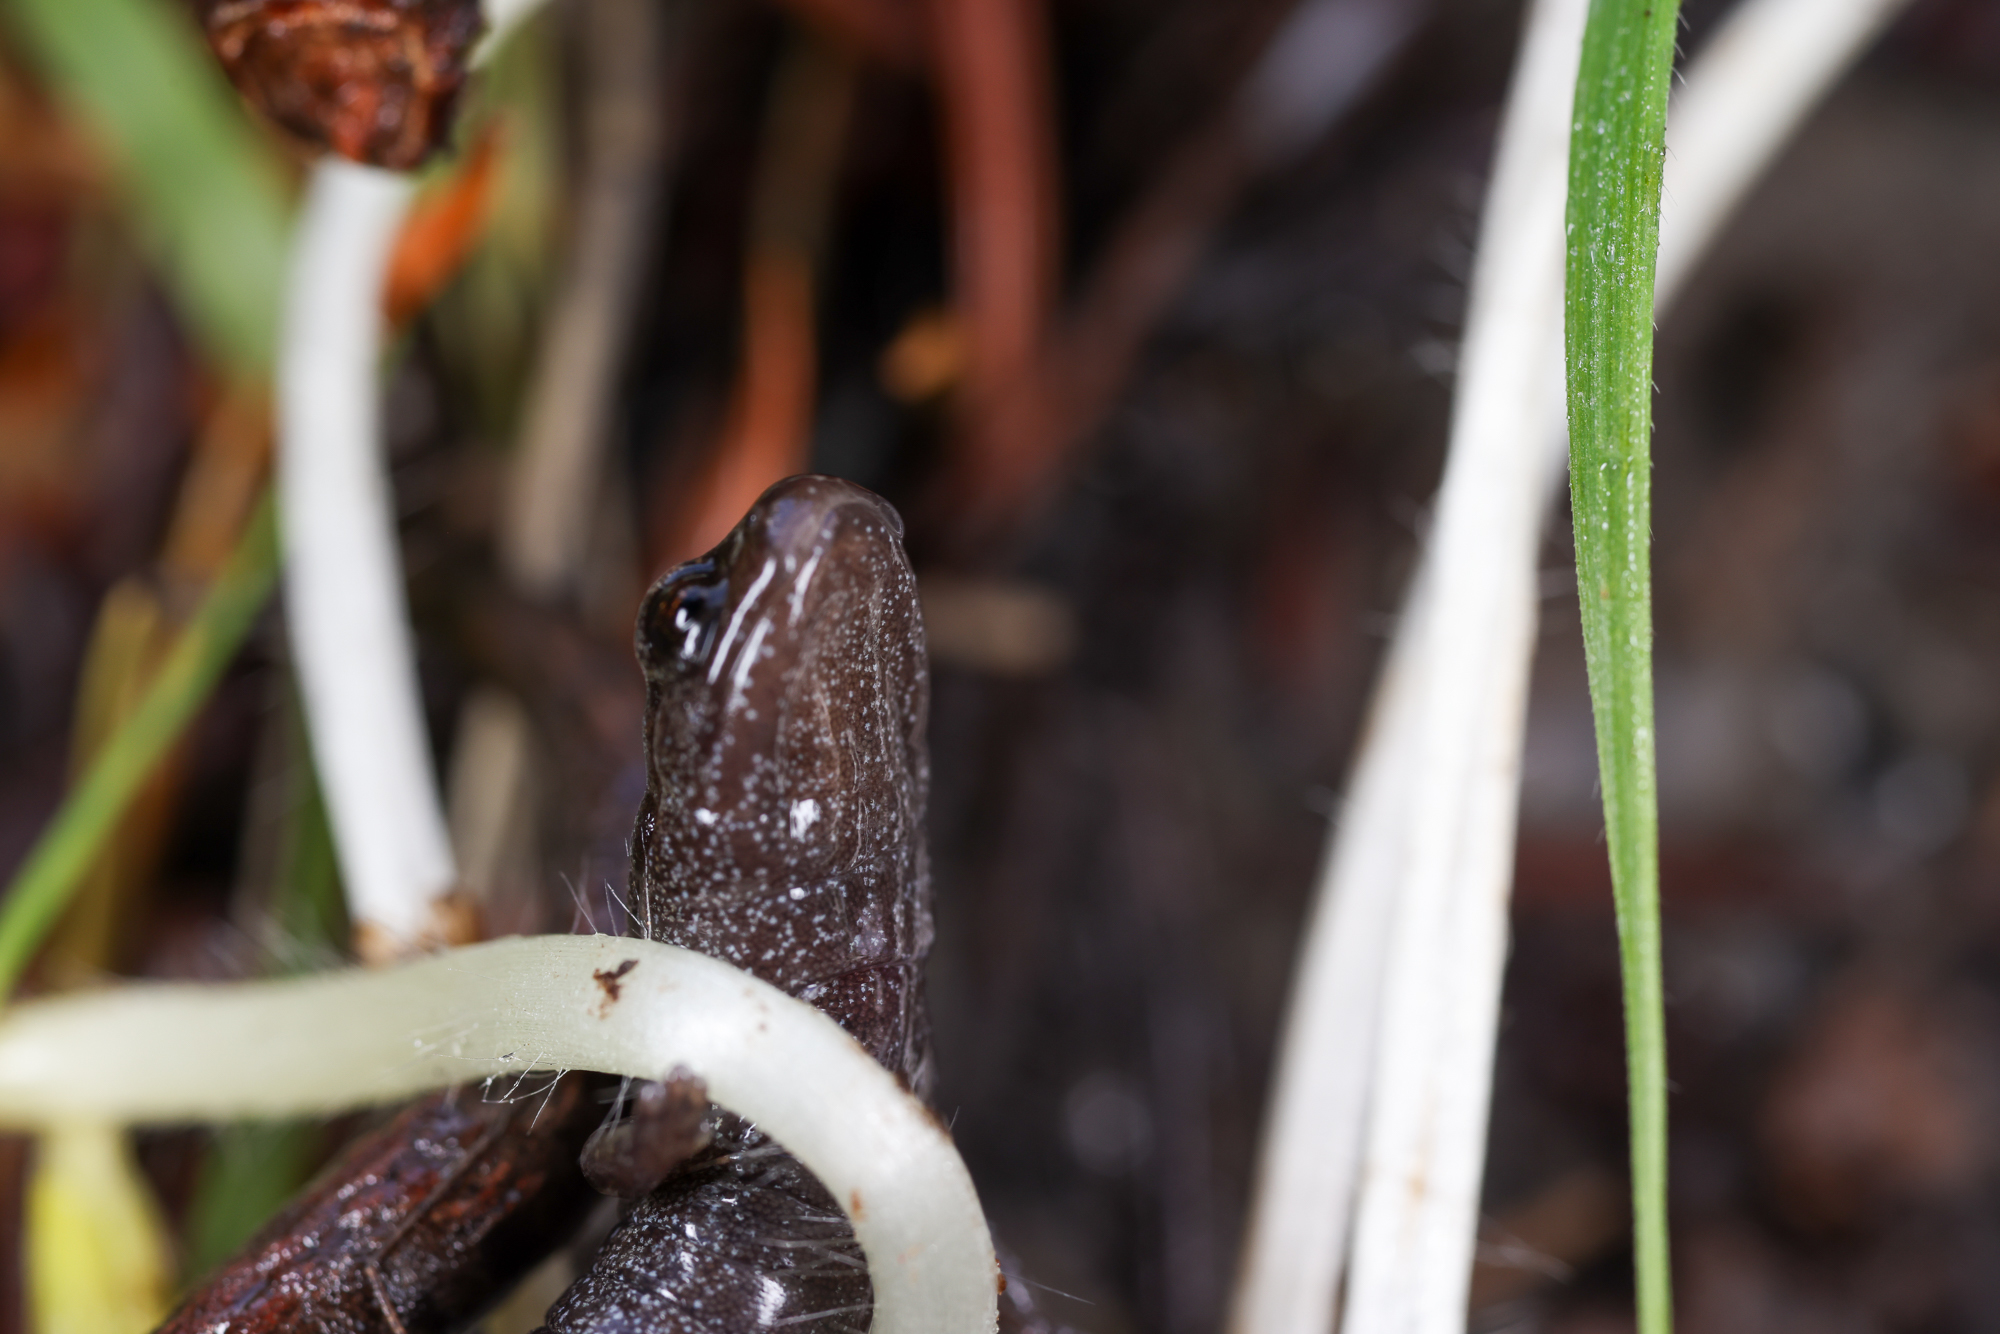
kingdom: Animalia
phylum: Chordata
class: Amphibia
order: Caudata
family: Plethodontidae
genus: Batrachoseps
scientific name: Batrachoseps attenuatus
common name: California slender salamander
